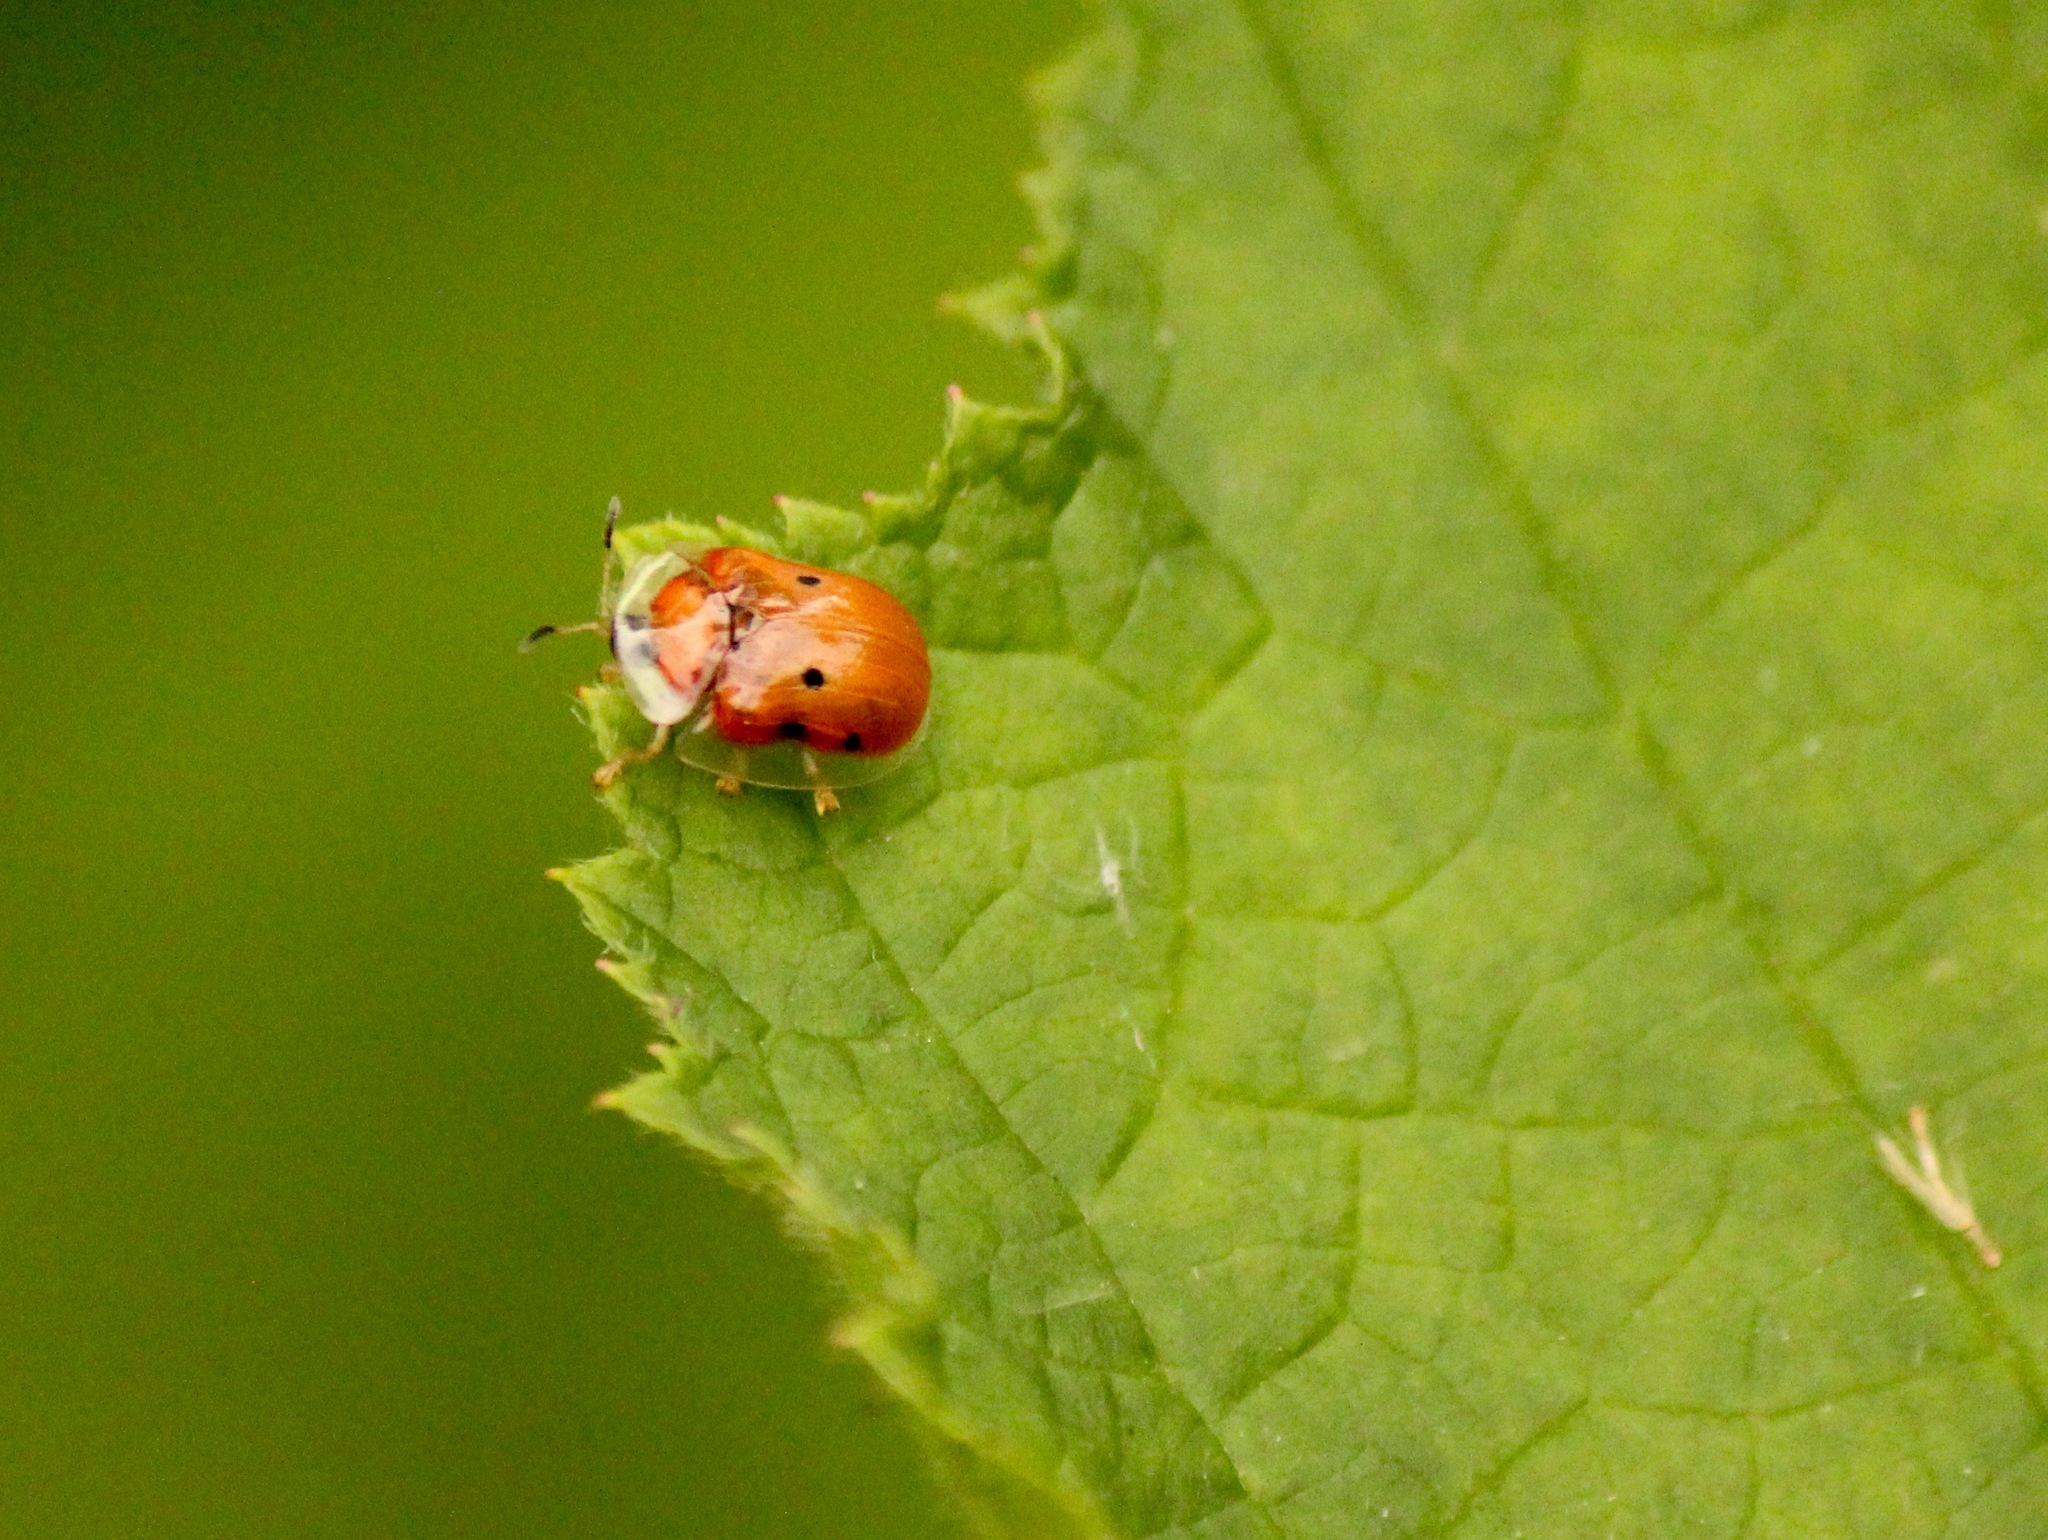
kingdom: Animalia
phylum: Arthropoda
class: Insecta
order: Coleoptera
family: Chrysomelidae
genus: Charidotella
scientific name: Charidotella sexpunctata
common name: Golden tortoise beetle
